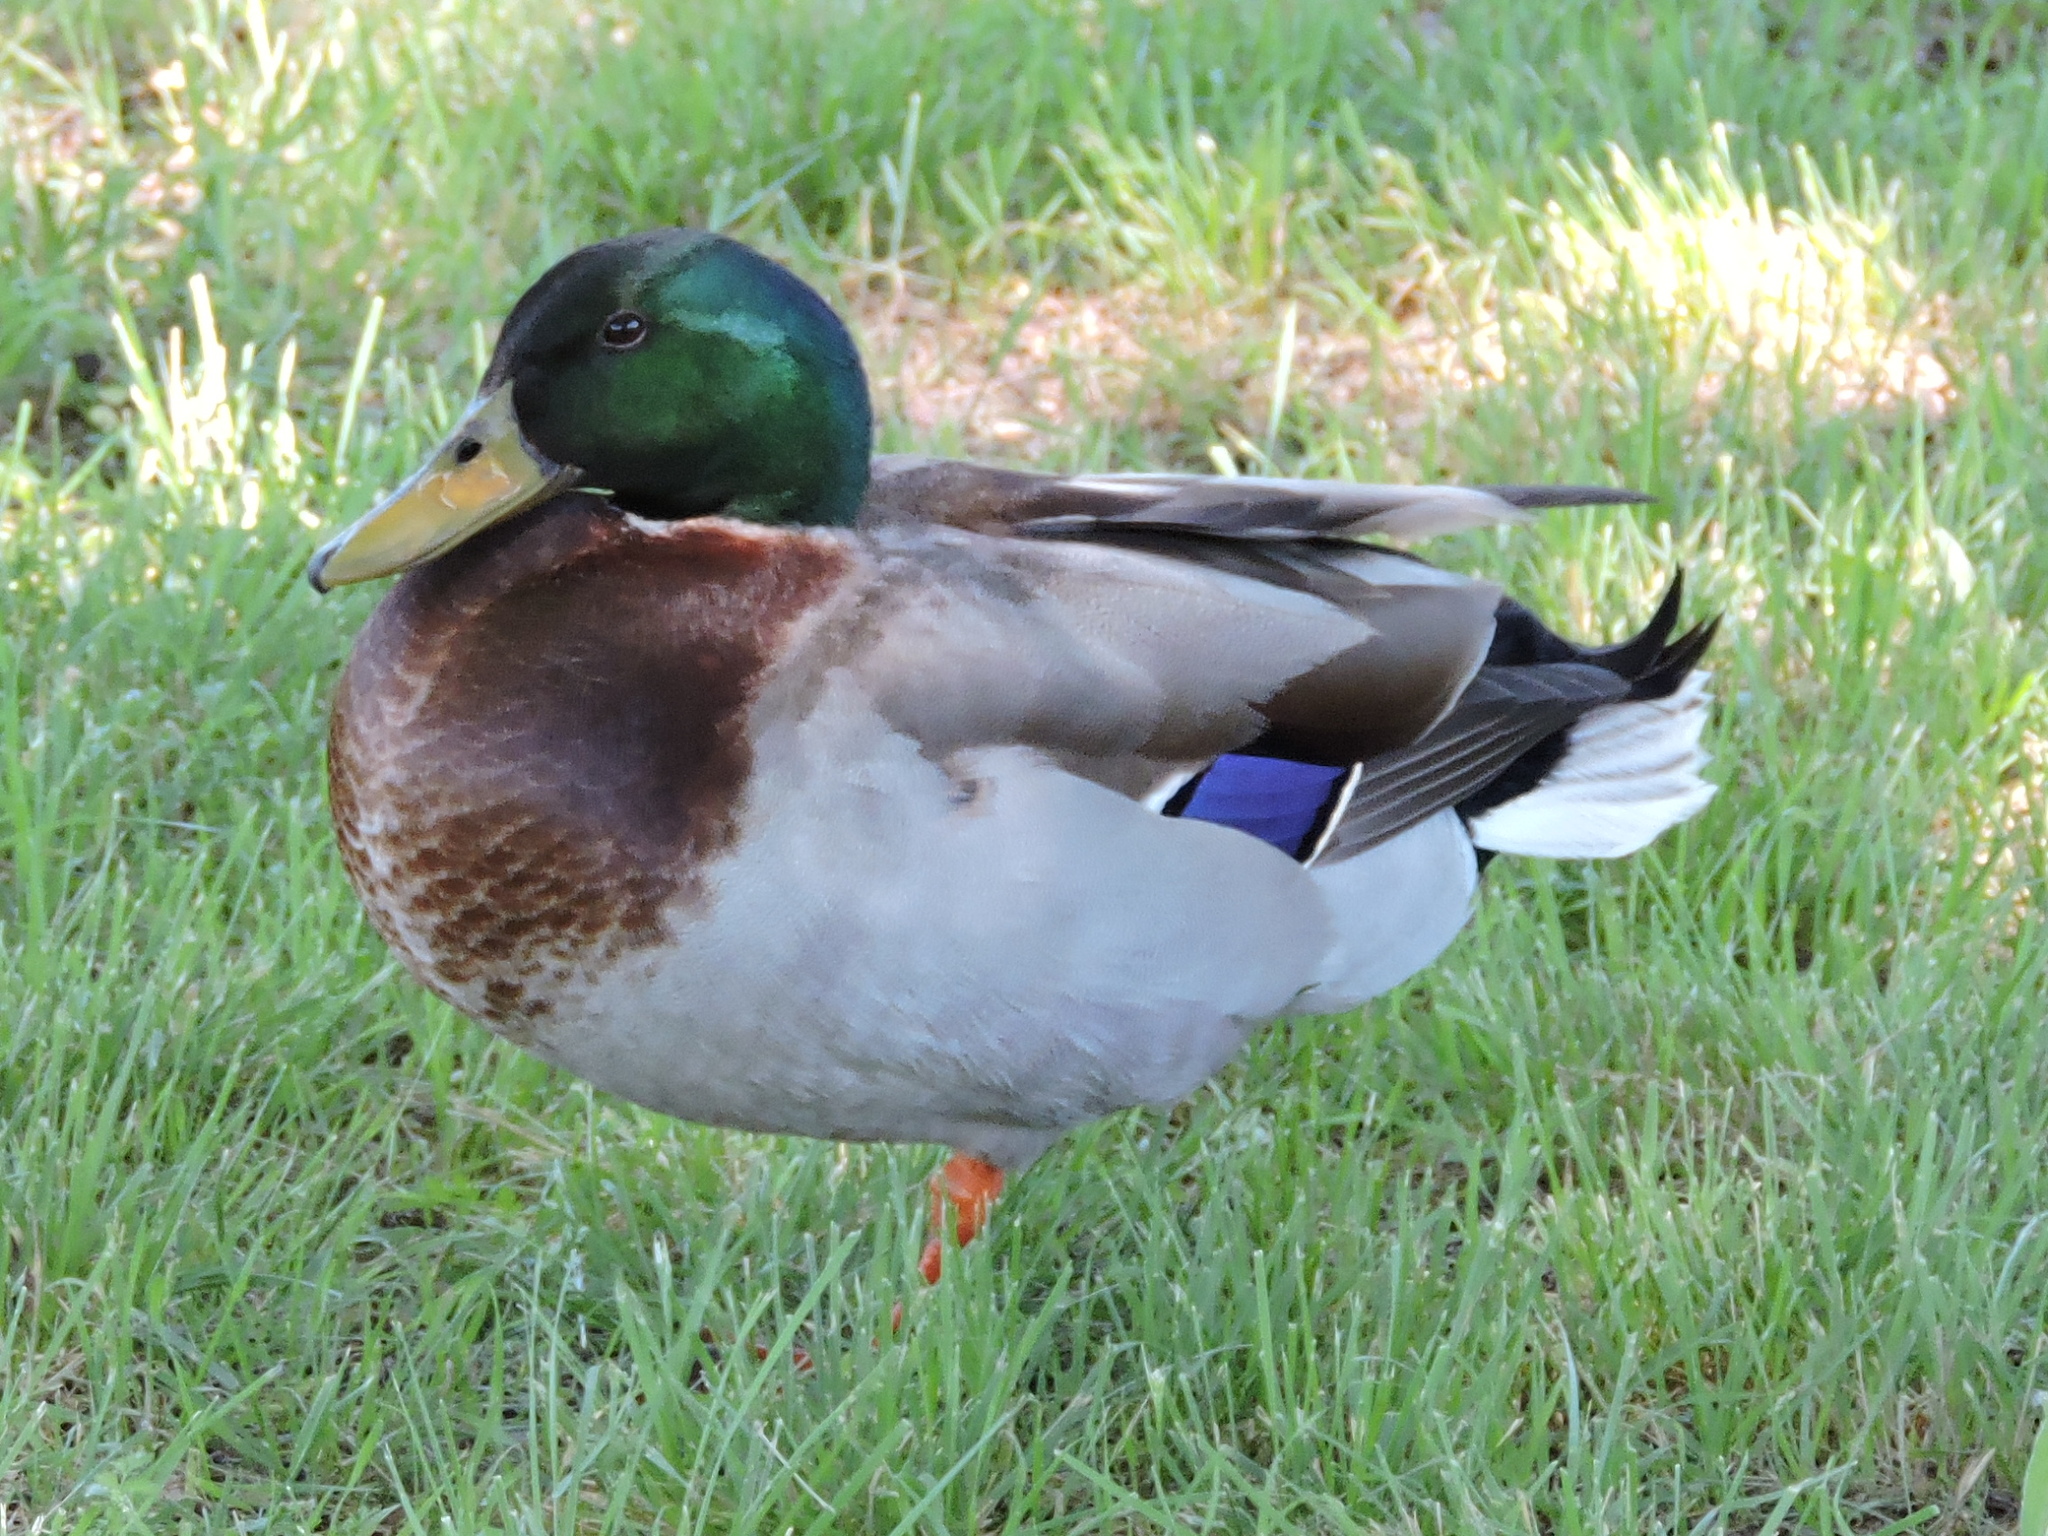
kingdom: Animalia
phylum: Chordata
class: Aves
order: Anseriformes
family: Anatidae
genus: Anas
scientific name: Anas platyrhynchos
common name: Mallard
